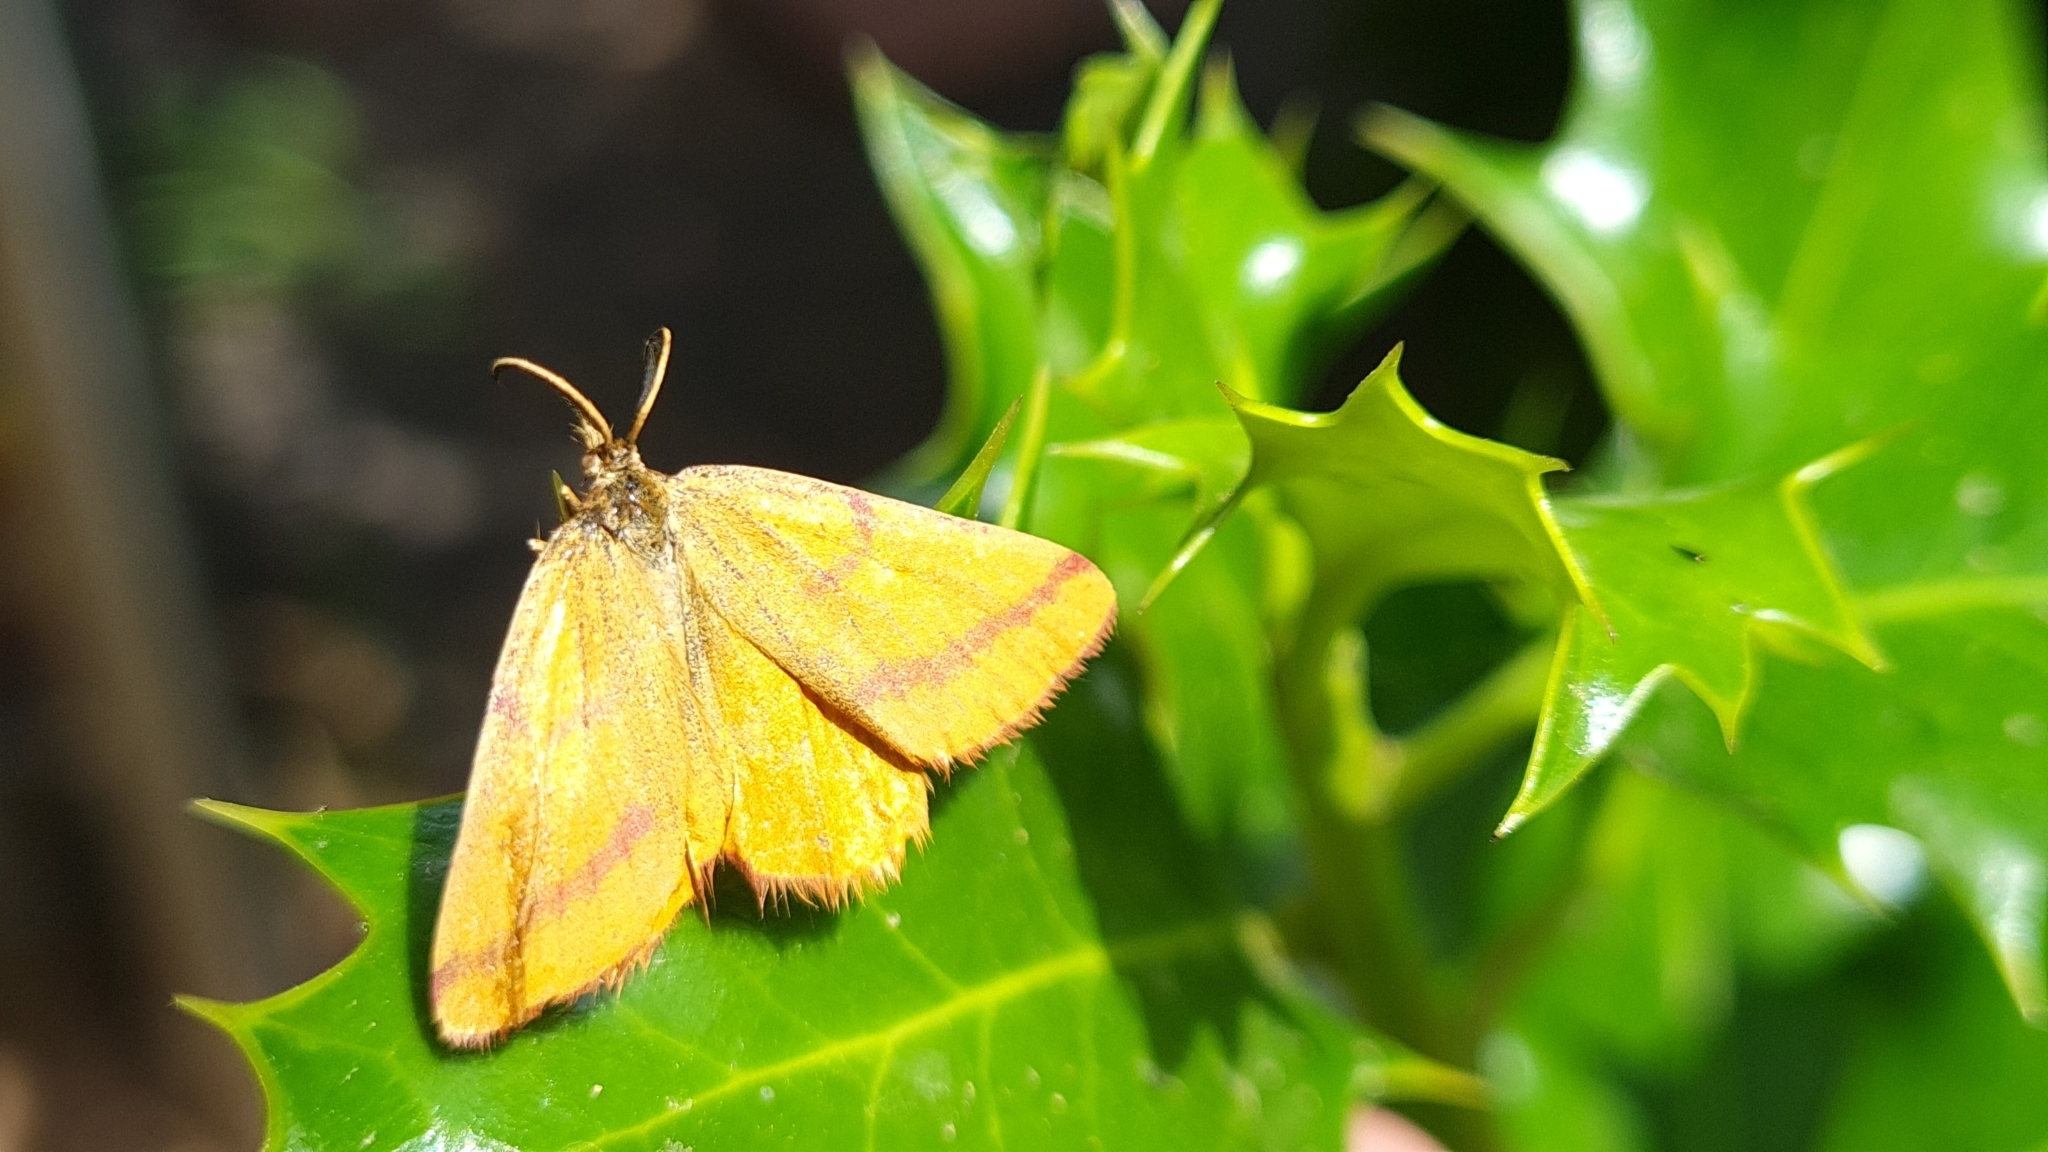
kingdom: Animalia
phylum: Arthropoda
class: Insecta
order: Lepidoptera
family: Geometridae
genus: Lythria
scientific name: Lythria purpuraria
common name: Purple-barred yellow
